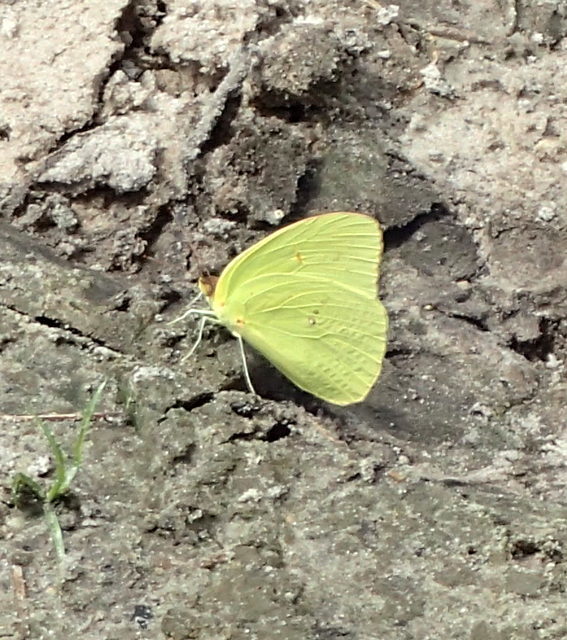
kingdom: Animalia
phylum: Arthropoda
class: Insecta
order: Lepidoptera
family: Pieridae
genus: Phoebis
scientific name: Phoebis sennae
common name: Cloudless sulphur
